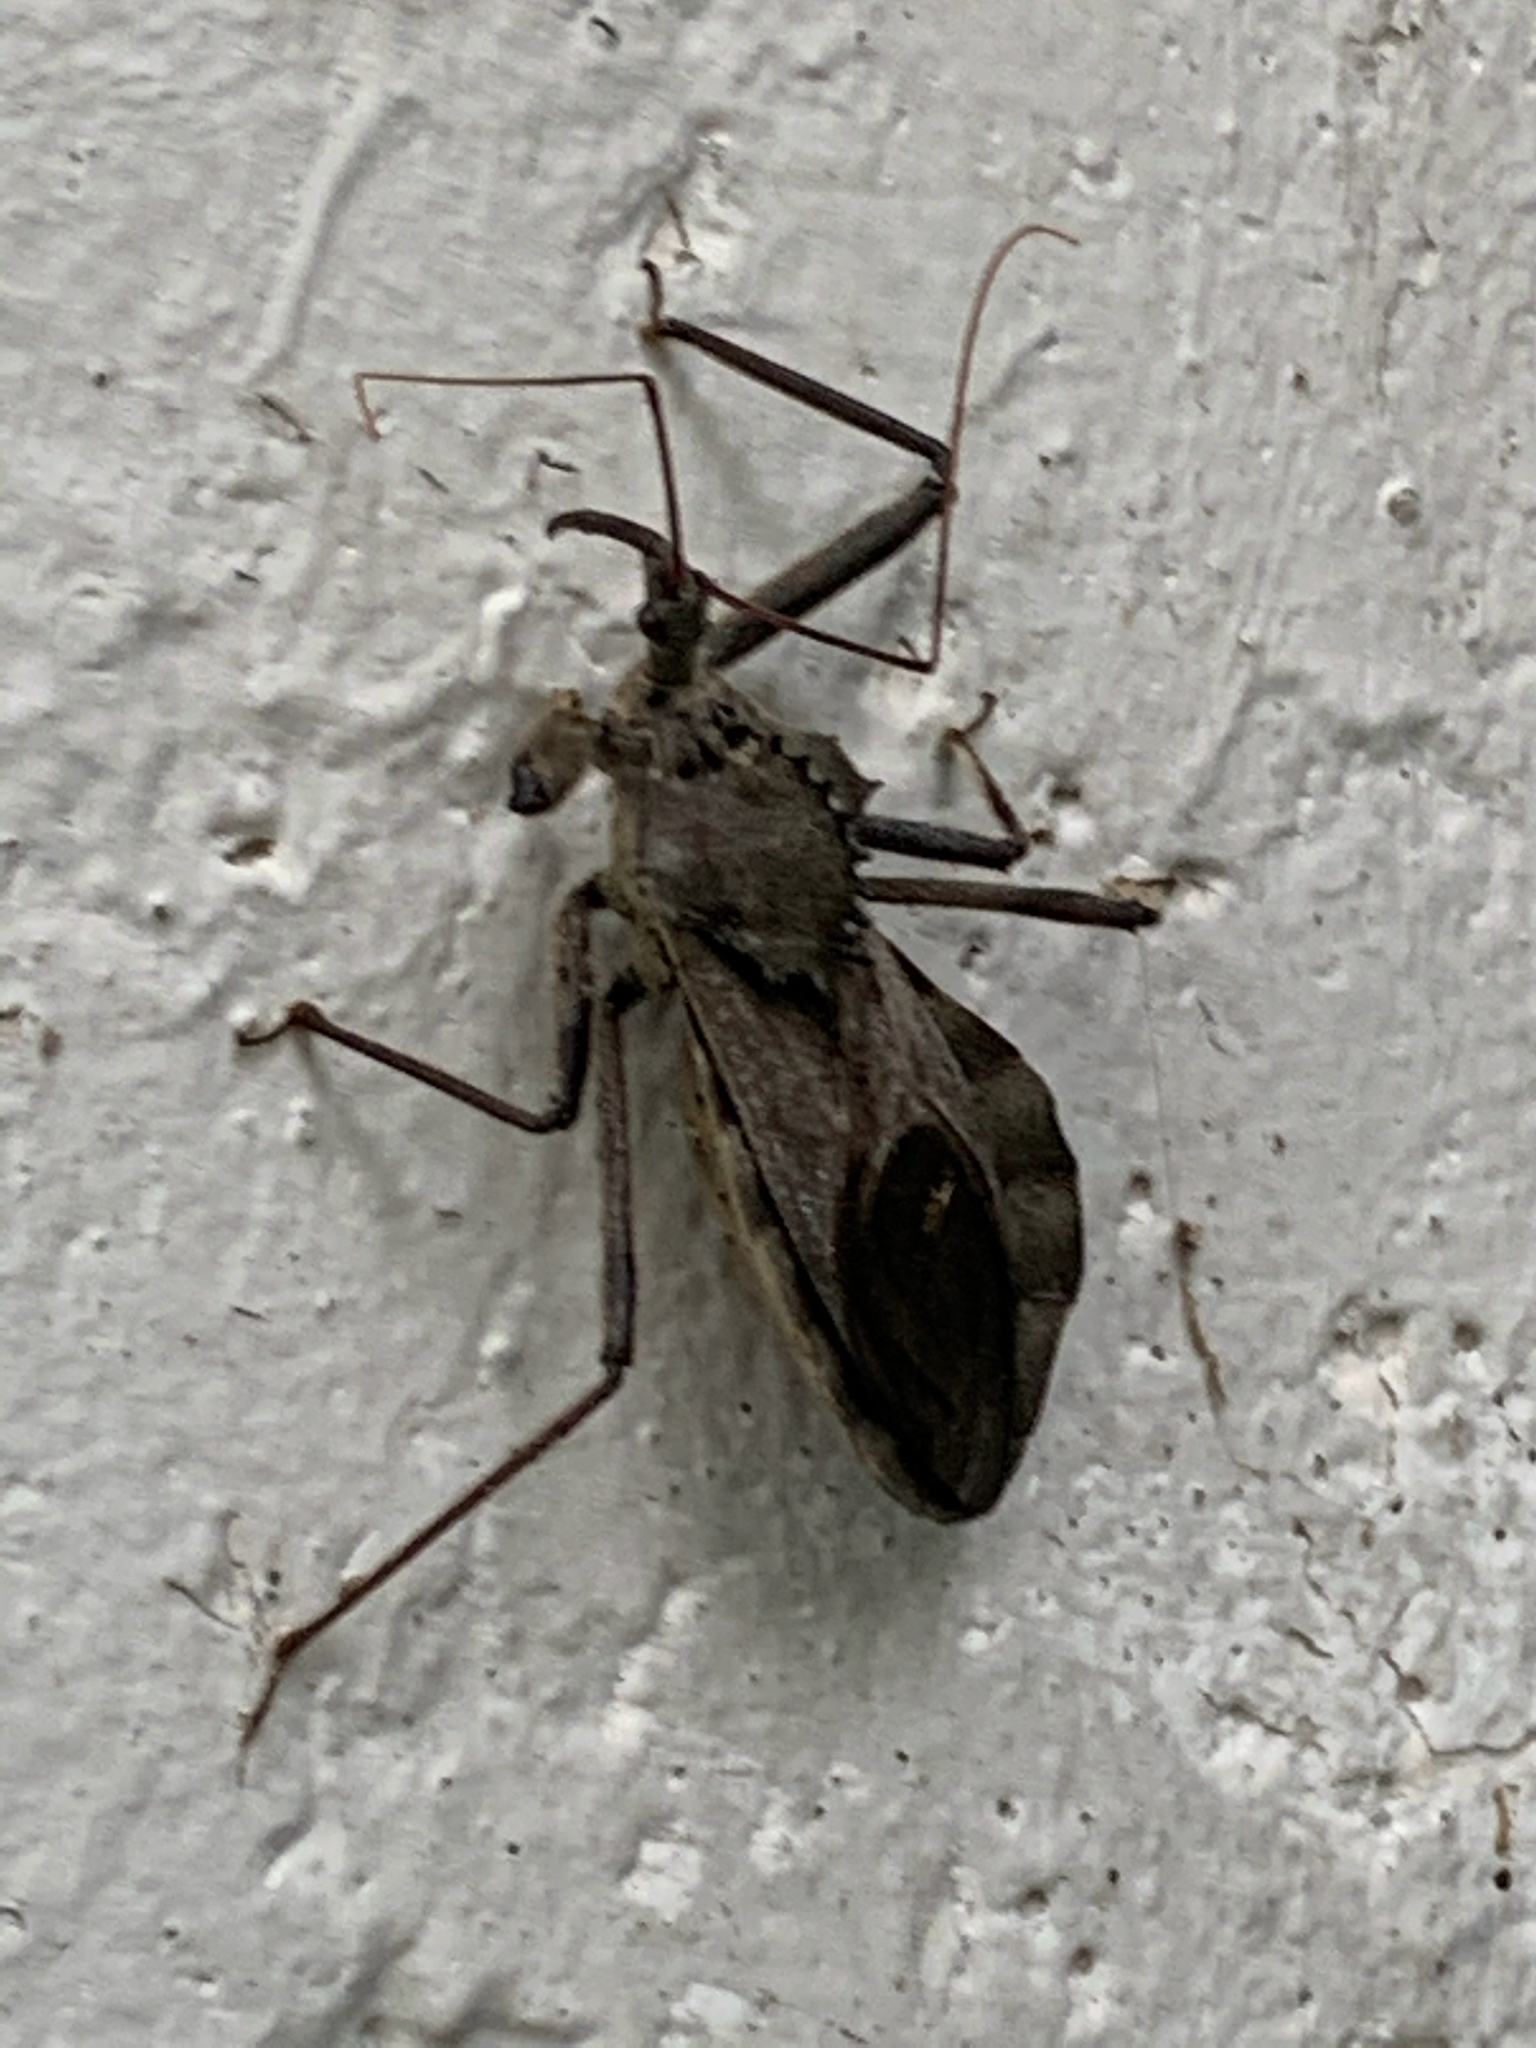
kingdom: Animalia
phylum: Arthropoda
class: Insecta
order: Hemiptera
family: Reduviidae
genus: Arilus
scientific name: Arilus cristatus
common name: North american wheel bug
